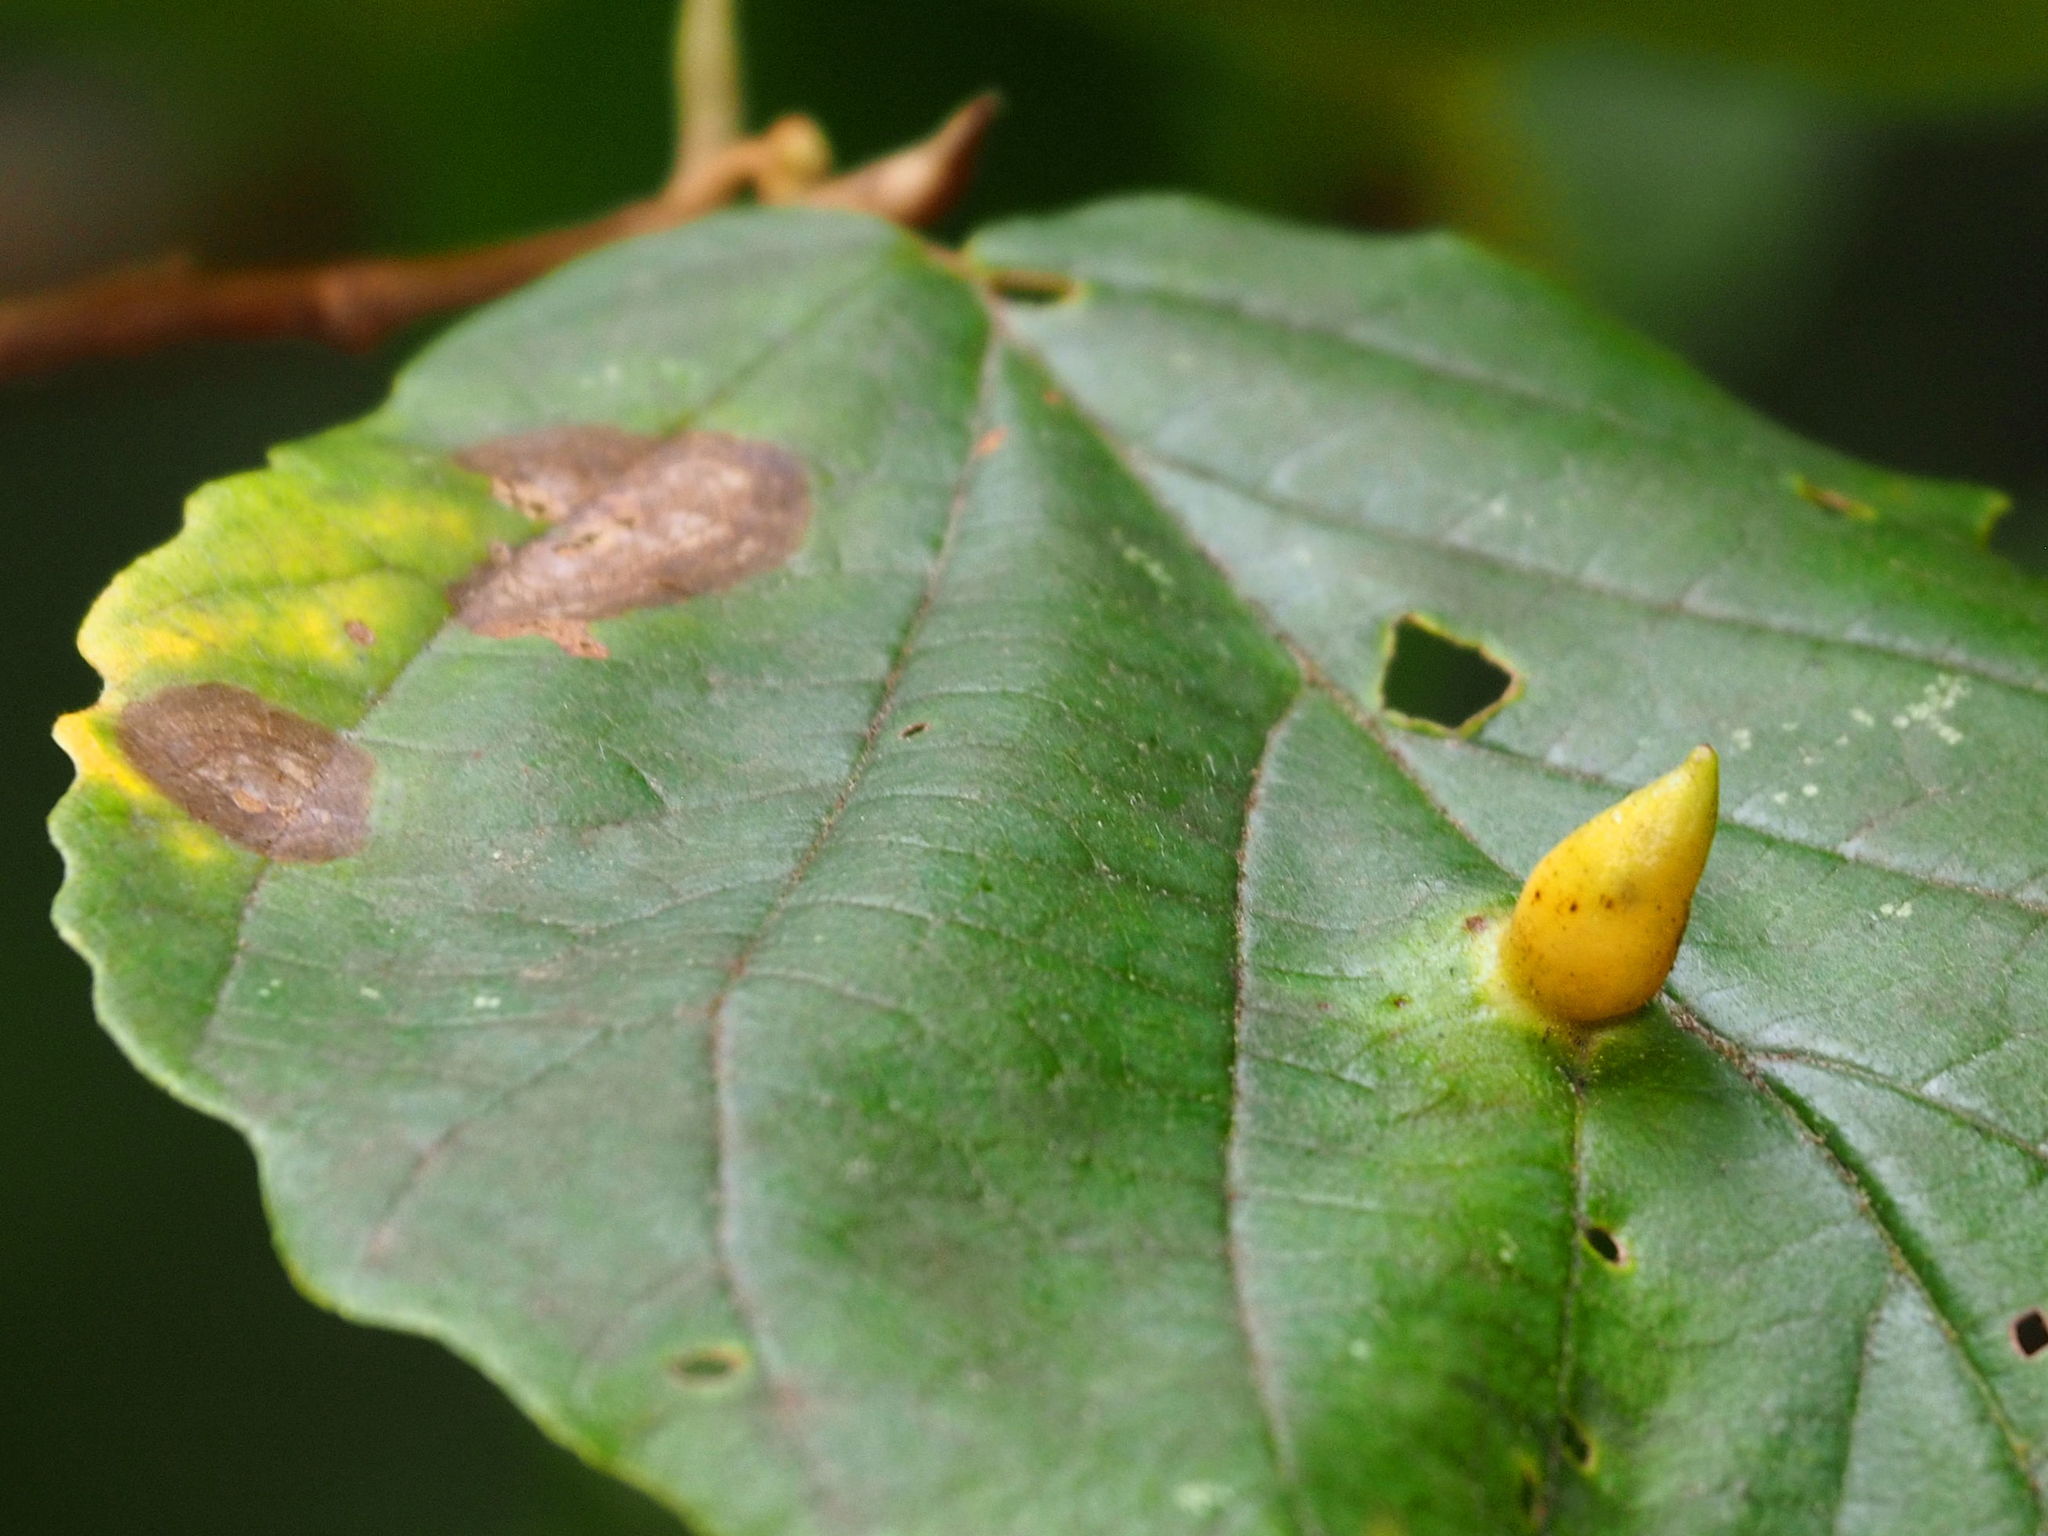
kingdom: Animalia
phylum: Arthropoda
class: Insecta
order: Hemiptera
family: Aphididae
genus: Hormaphis
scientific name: Hormaphis hamamelidis
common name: Witch-hazel cone gall aphid
